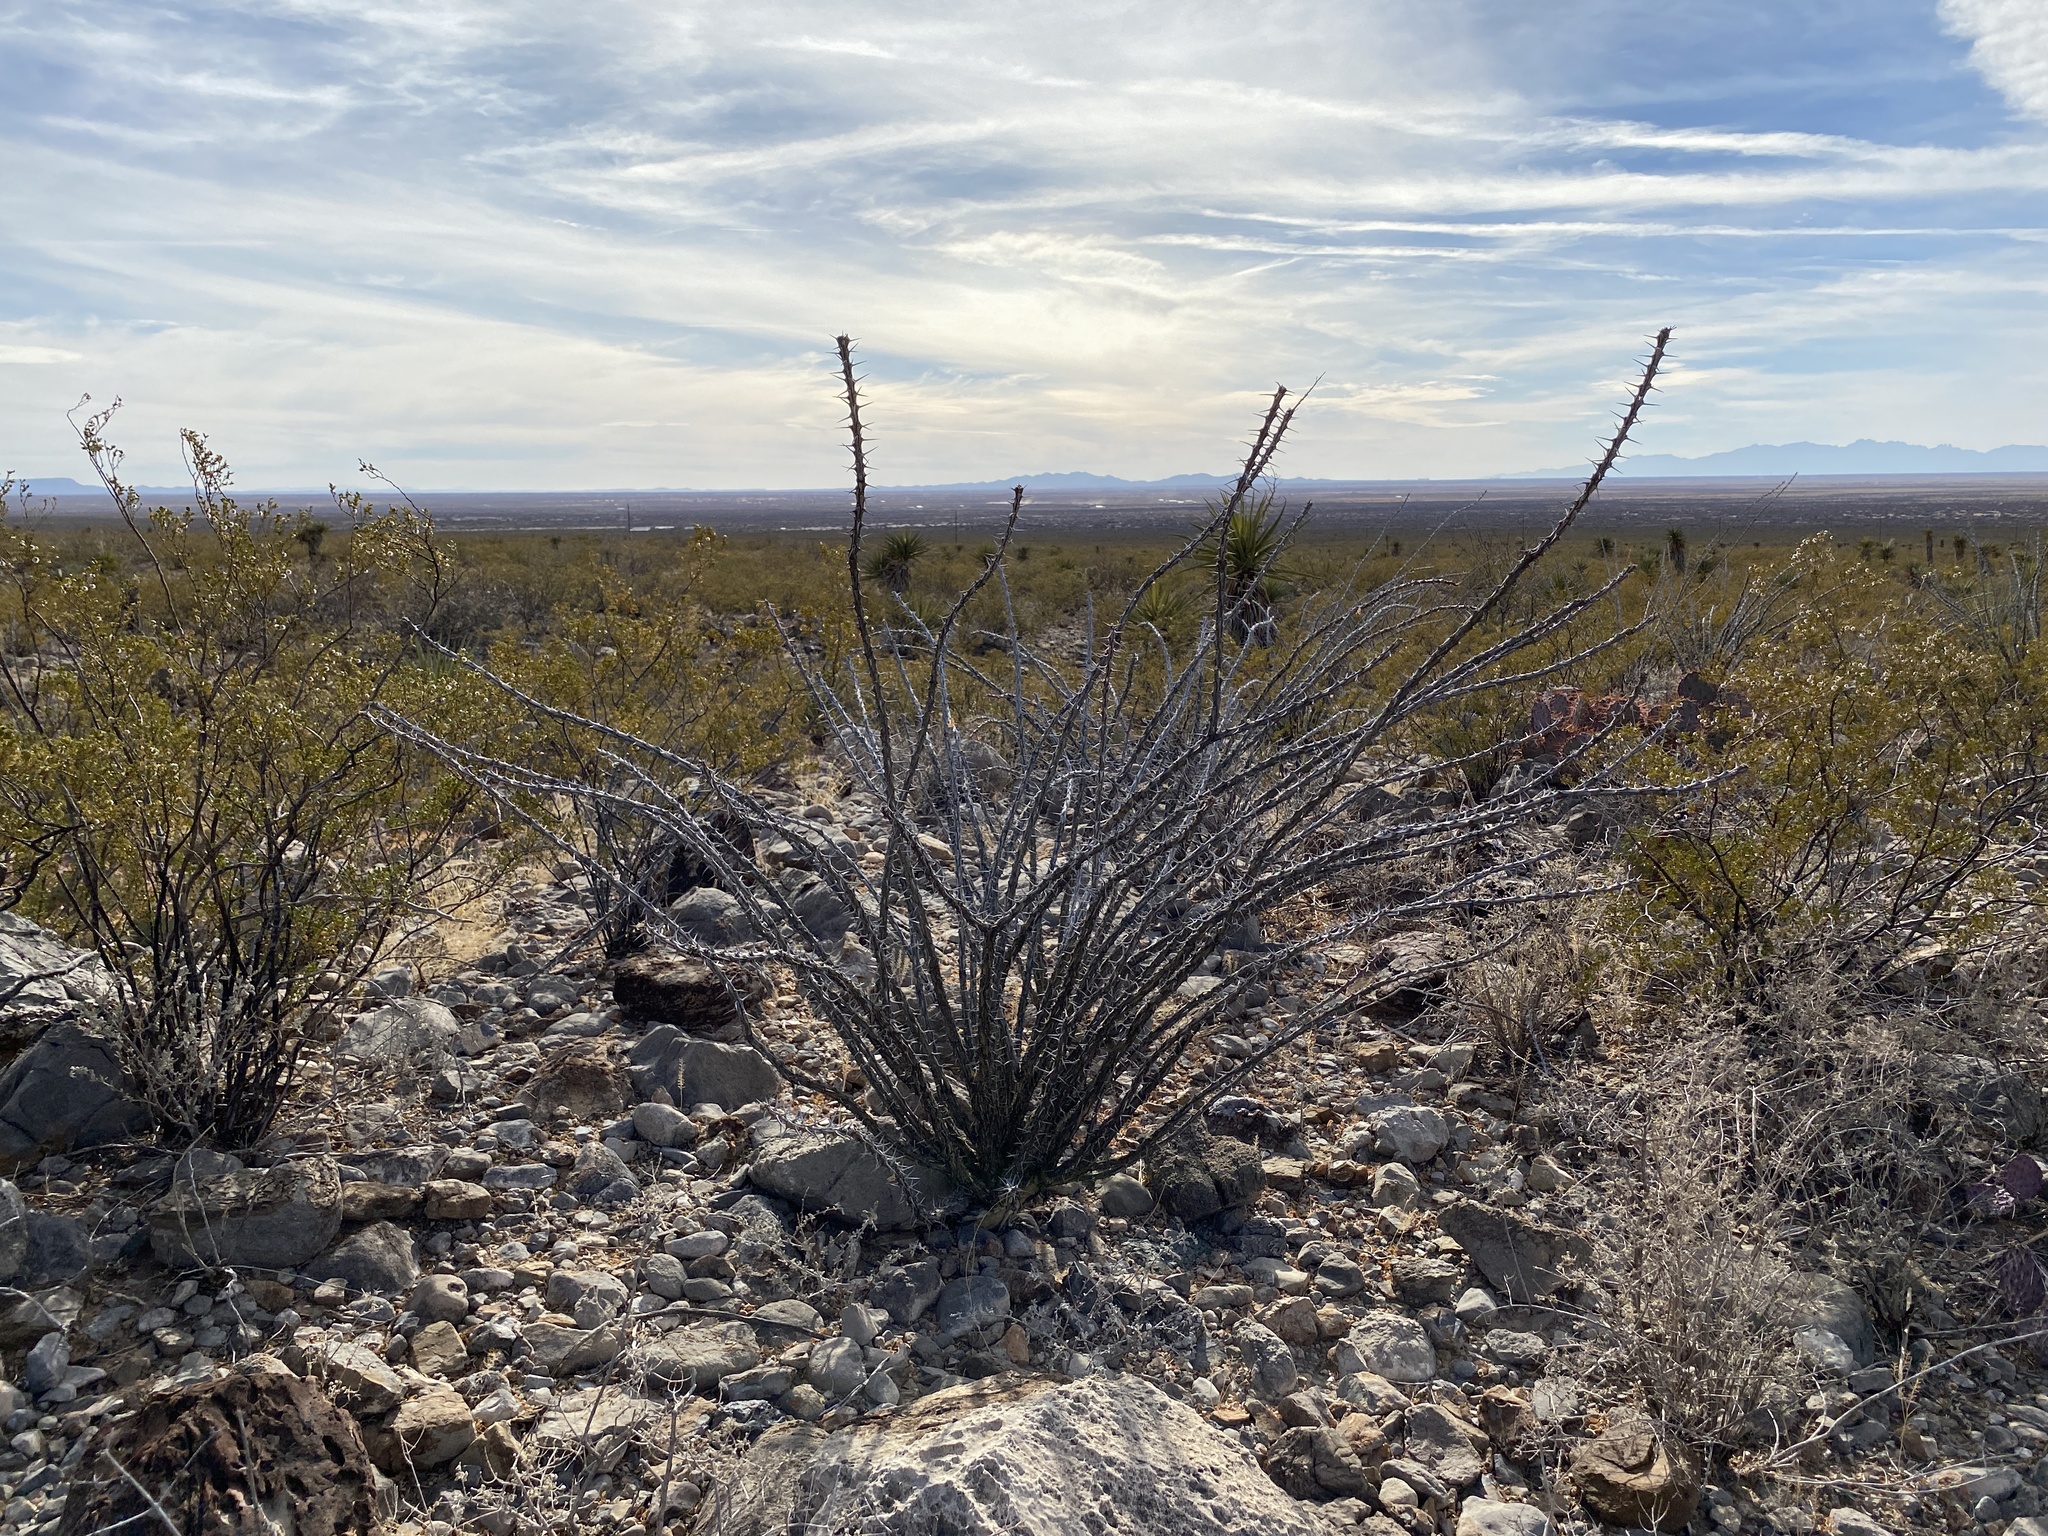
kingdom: Plantae
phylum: Tracheophyta
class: Magnoliopsida
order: Ericales
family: Fouquieriaceae
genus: Fouquieria
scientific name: Fouquieria splendens
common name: Vine-cactus
